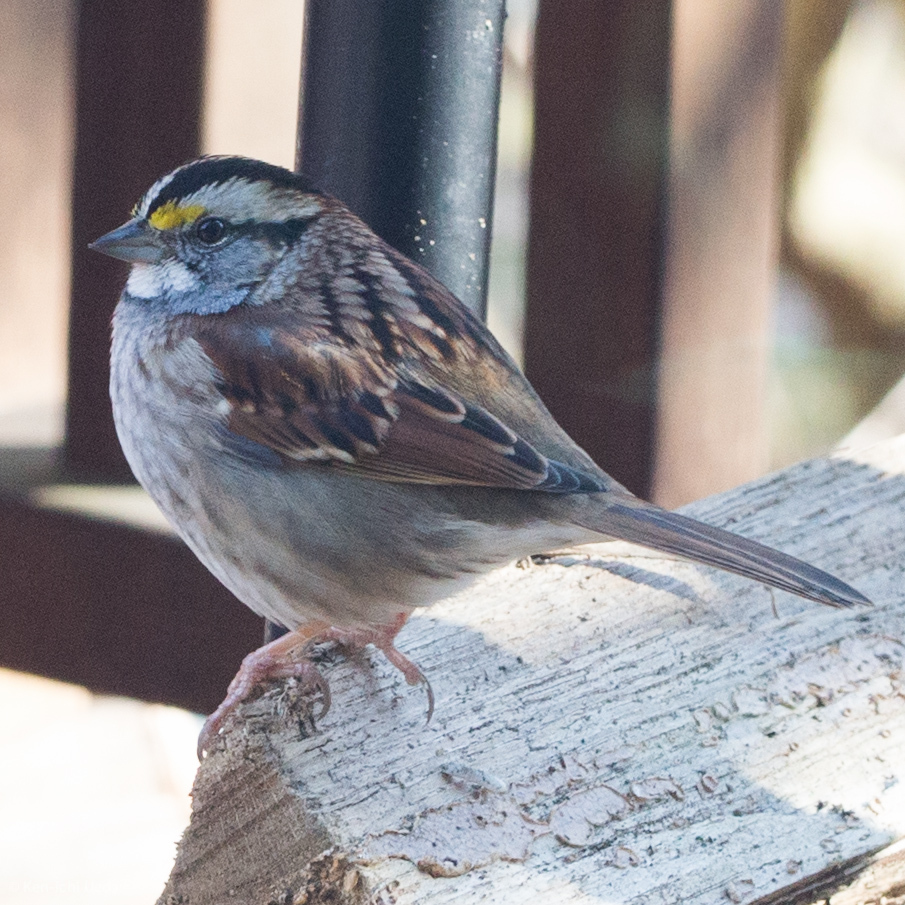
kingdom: Animalia
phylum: Chordata
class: Aves
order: Passeriformes
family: Passerellidae
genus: Zonotrichia
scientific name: Zonotrichia albicollis
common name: White-throated sparrow
